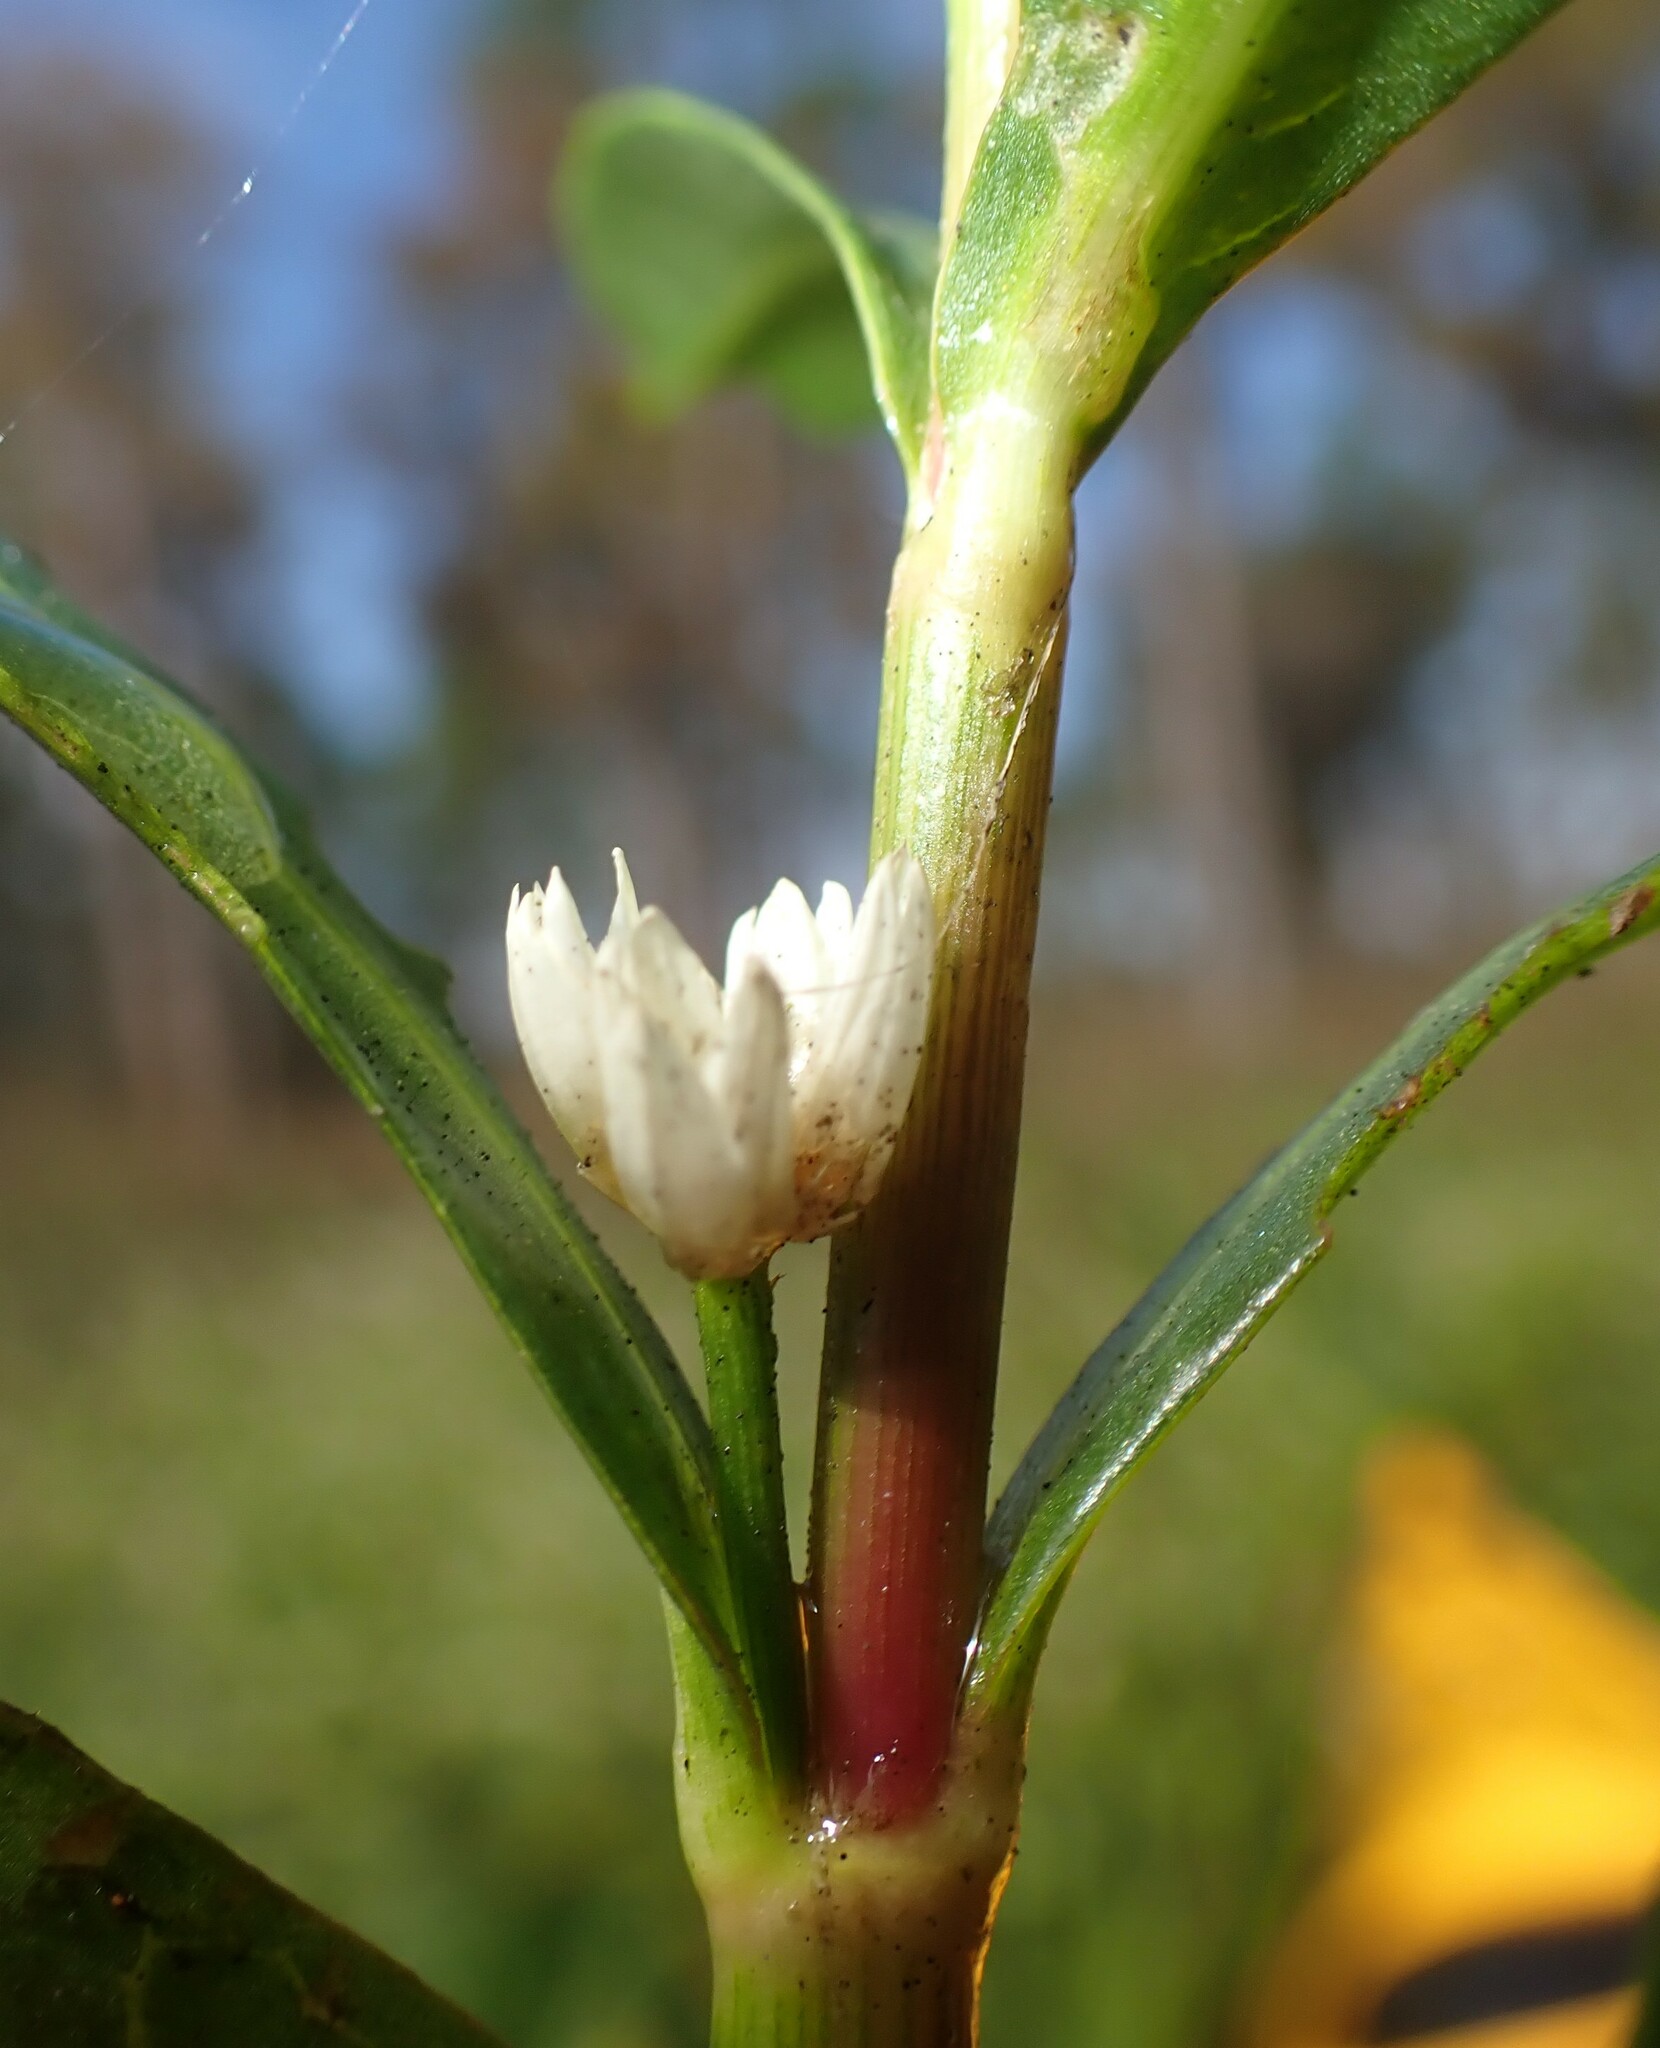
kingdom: Plantae
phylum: Tracheophyta
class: Magnoliopsida
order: Caryophyllales
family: Amaranthaceae
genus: Alternanthera
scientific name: Alternanthera philoxeroides
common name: Alligatorweed
